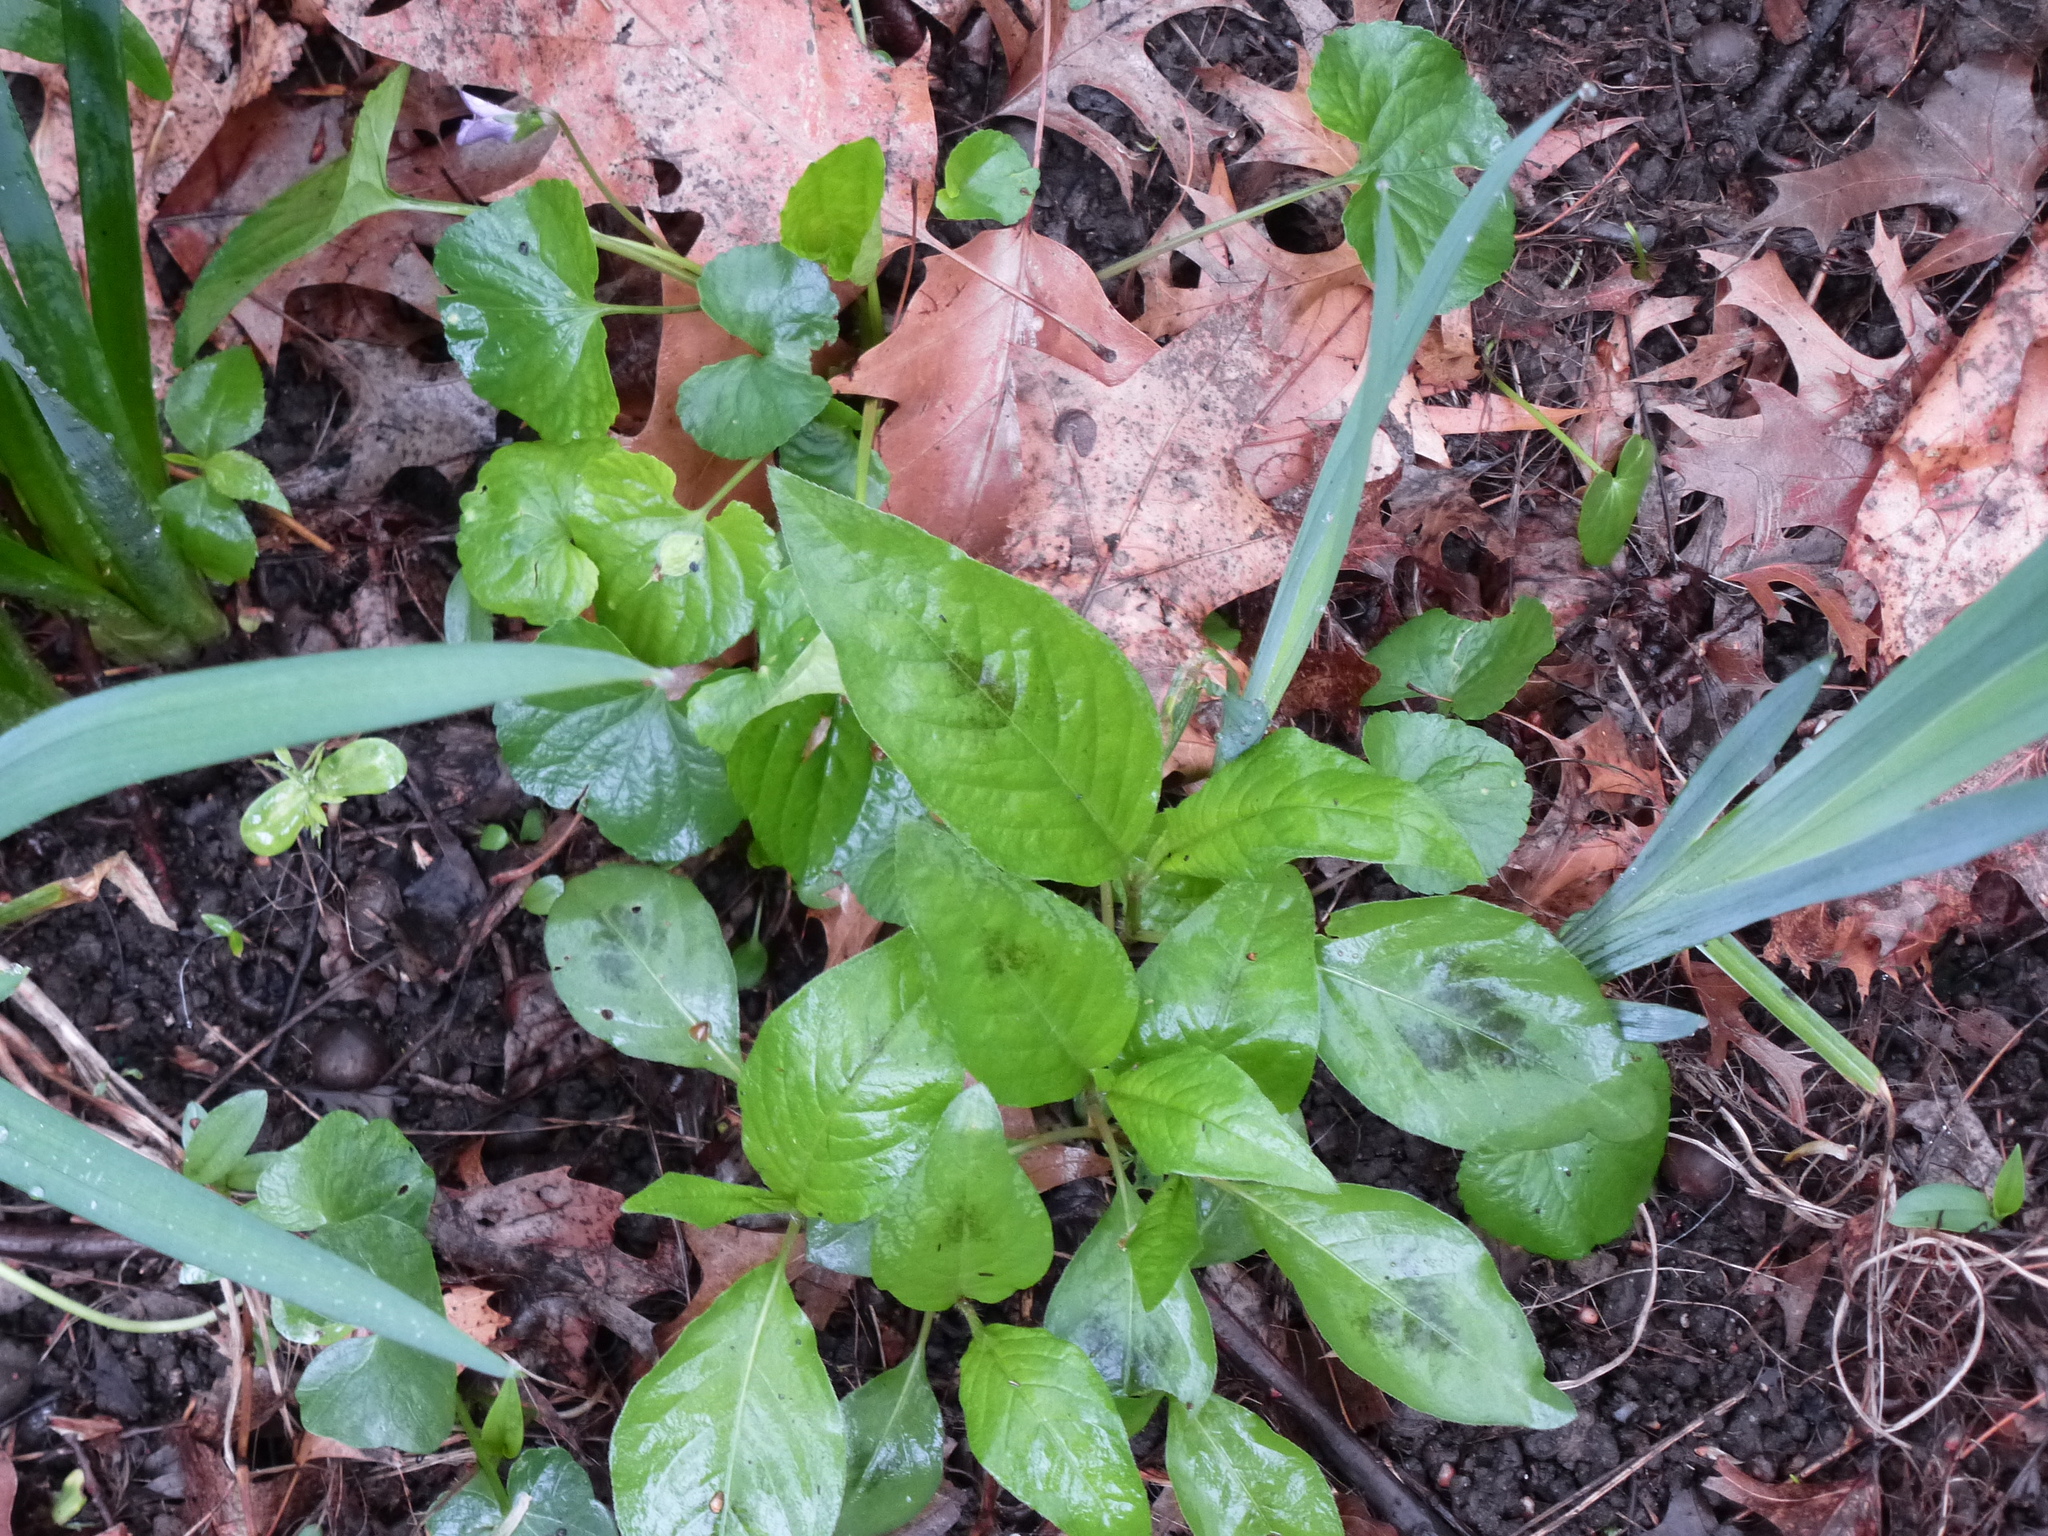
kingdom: Plantae
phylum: Tracheophyta
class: Magnoliopsida
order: Ranunculales
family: Ranunculaceae
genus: Ficaria
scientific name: Ficaria verna
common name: Lesser celandine
